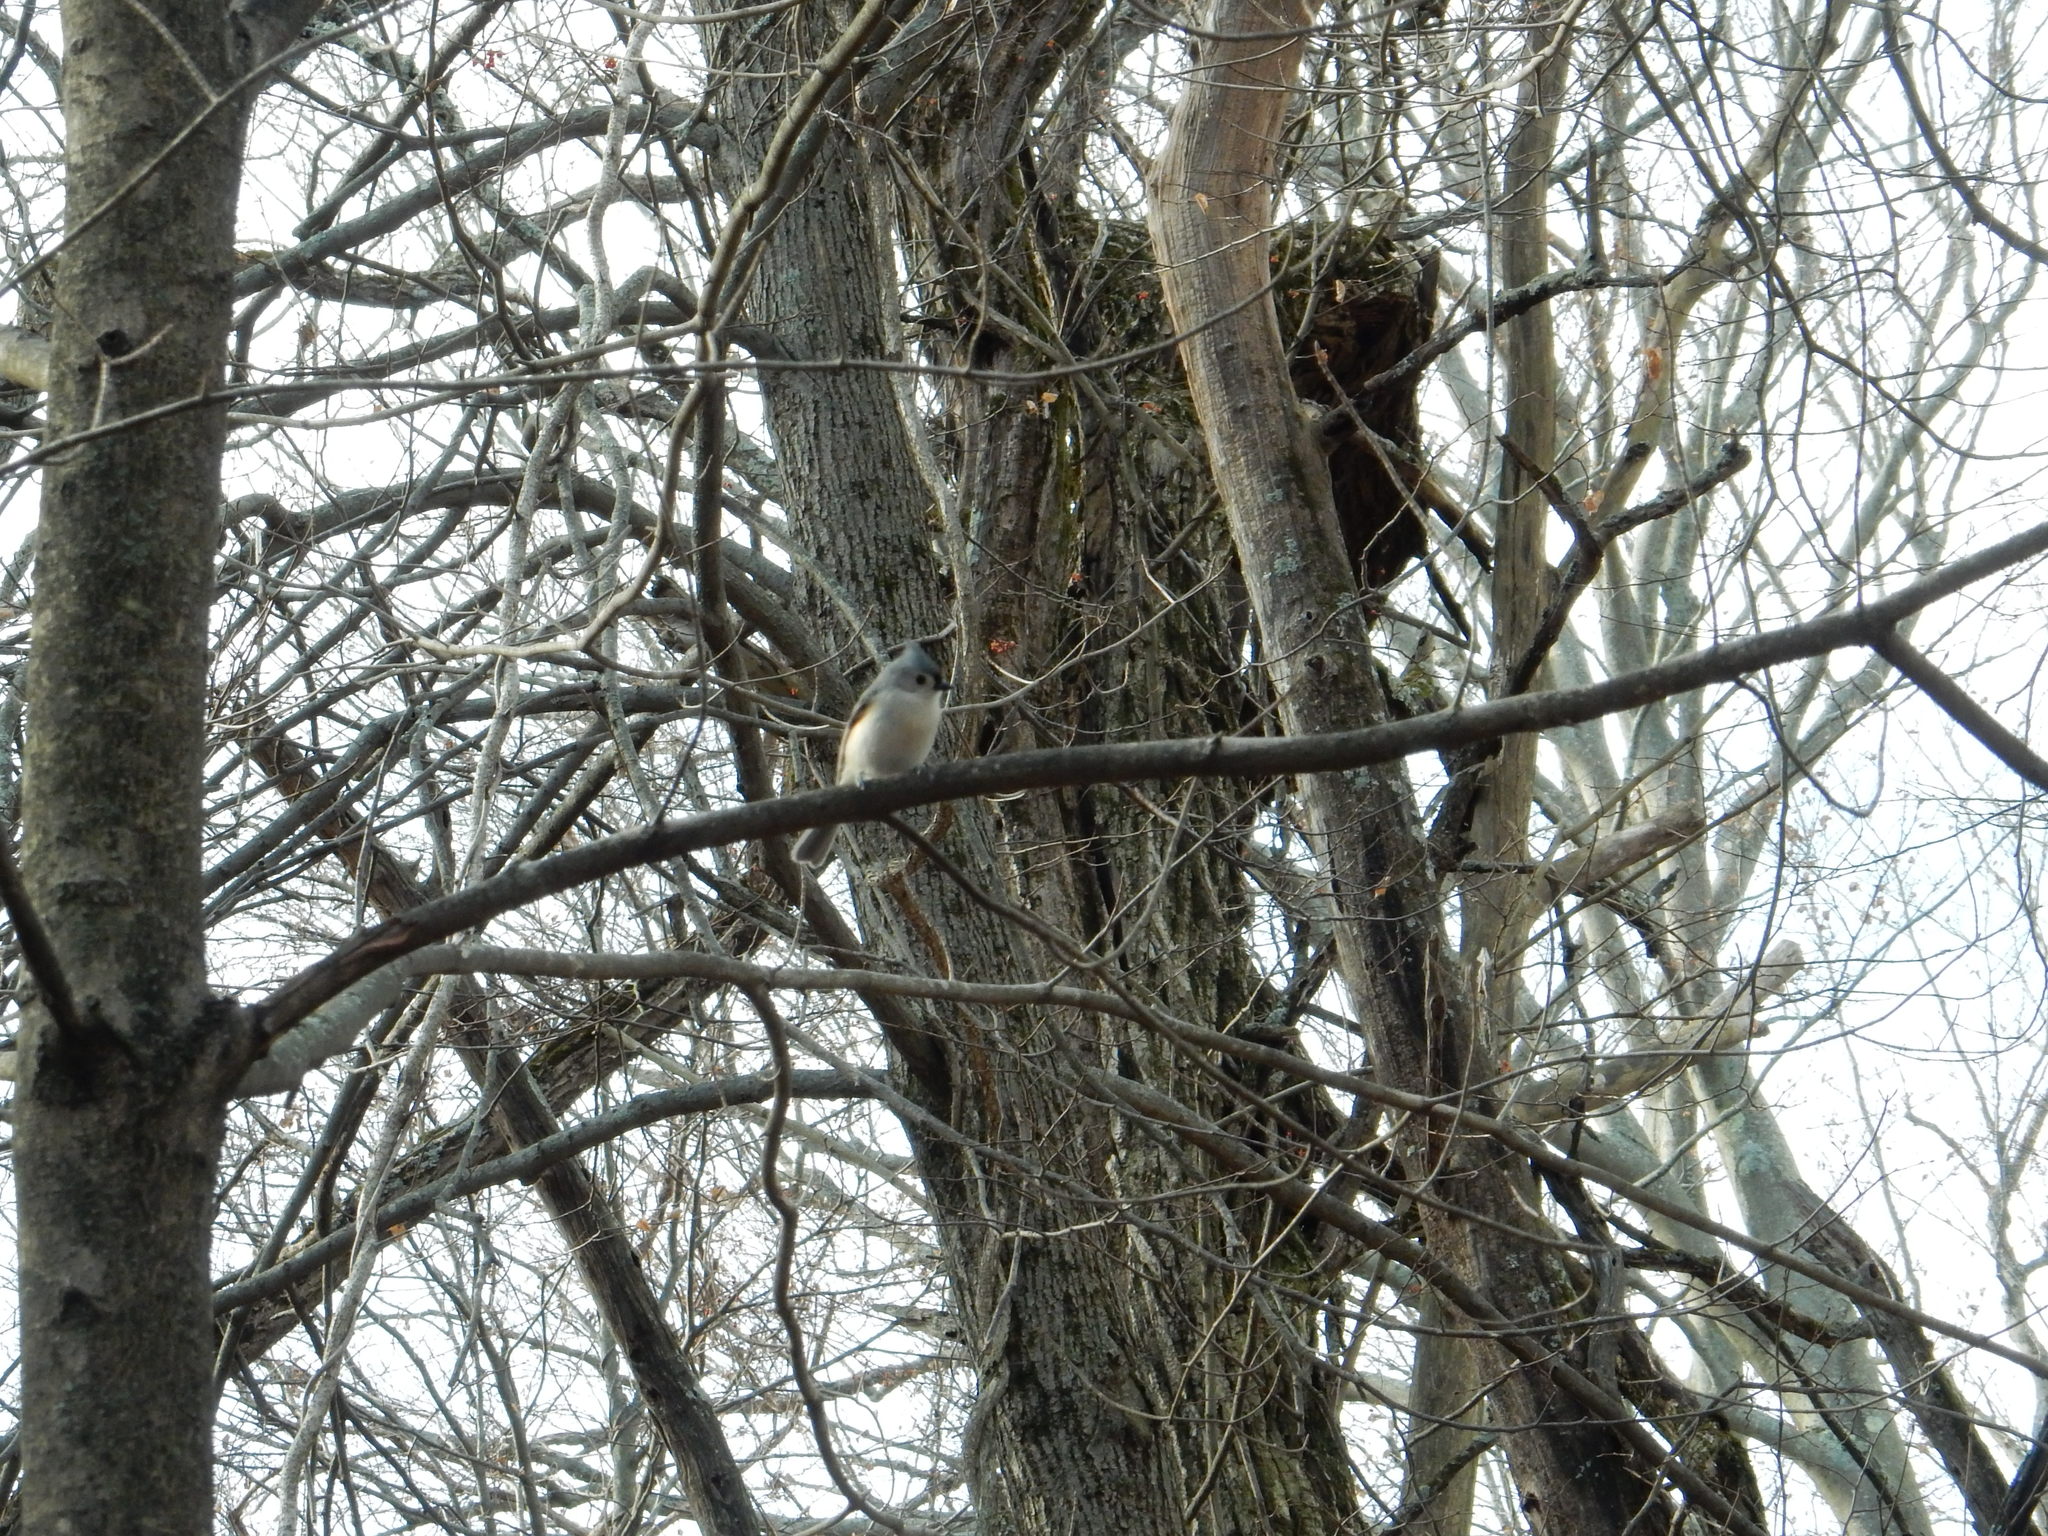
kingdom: Animalia
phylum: Chordata
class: Aves
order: Passeriformes
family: Paridae
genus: Baeolophus
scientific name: Baeolophus bicolor
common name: Tufted titmouse
